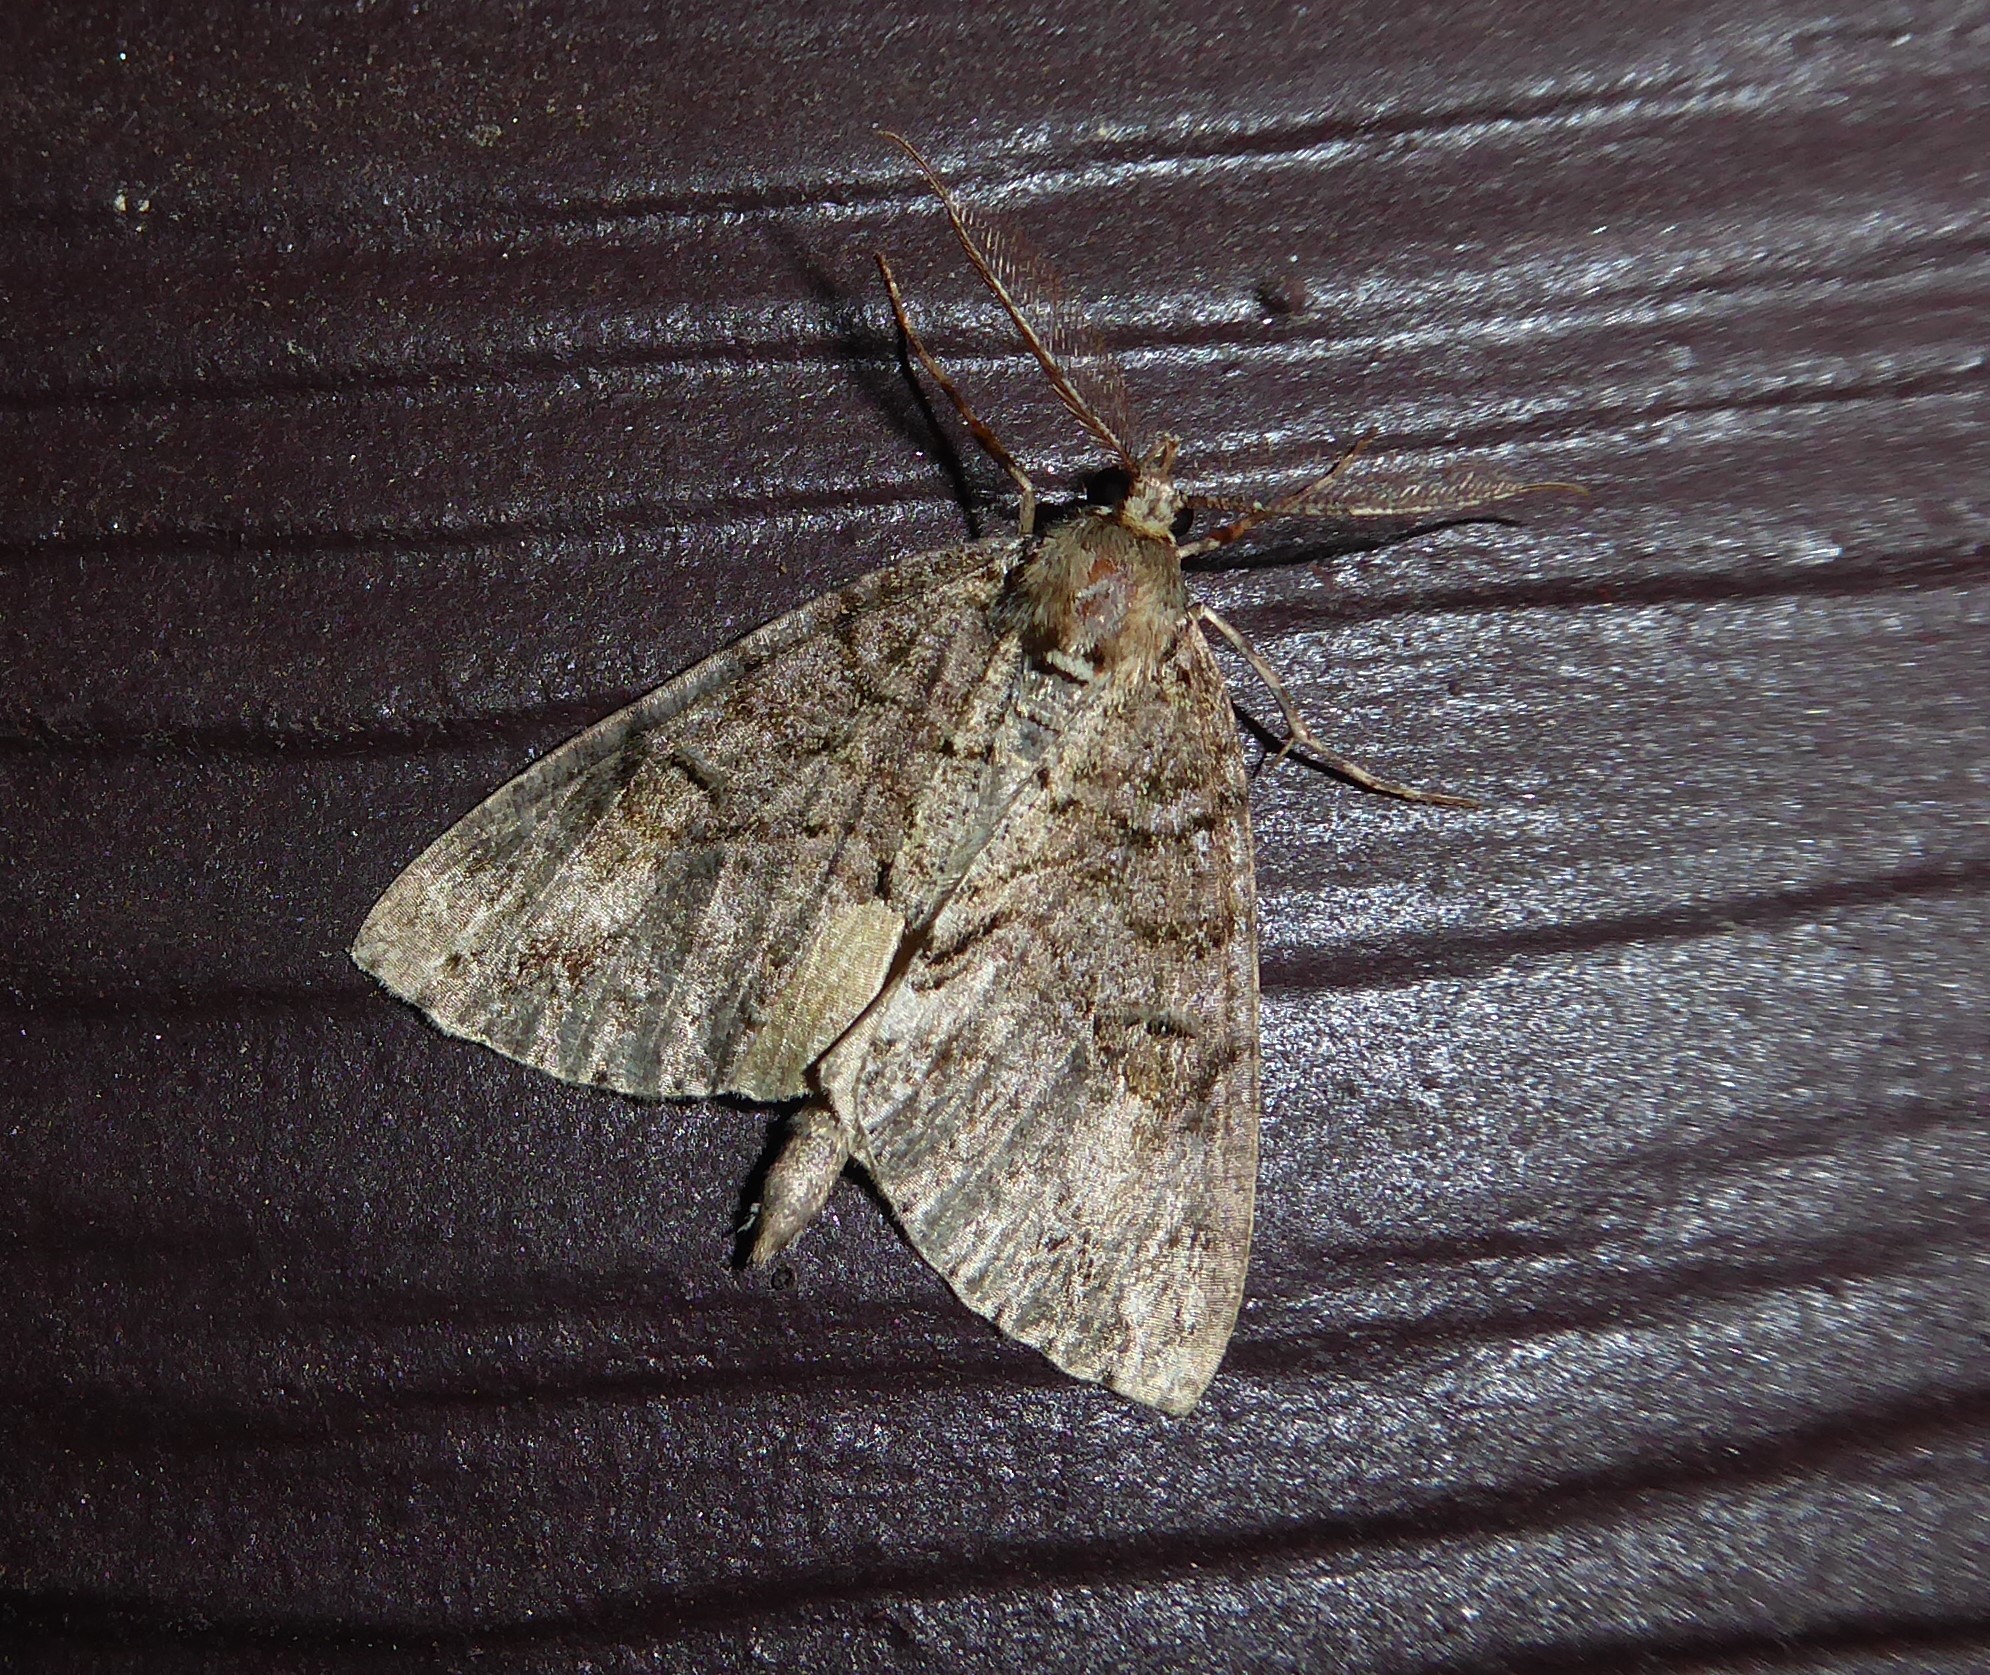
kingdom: Animalia
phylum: Arthropoda
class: Insecta
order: Lepidoptera
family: Geometridae
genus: Pseudocoremia
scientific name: Pseudocoremia suavis
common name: Common forest looper
